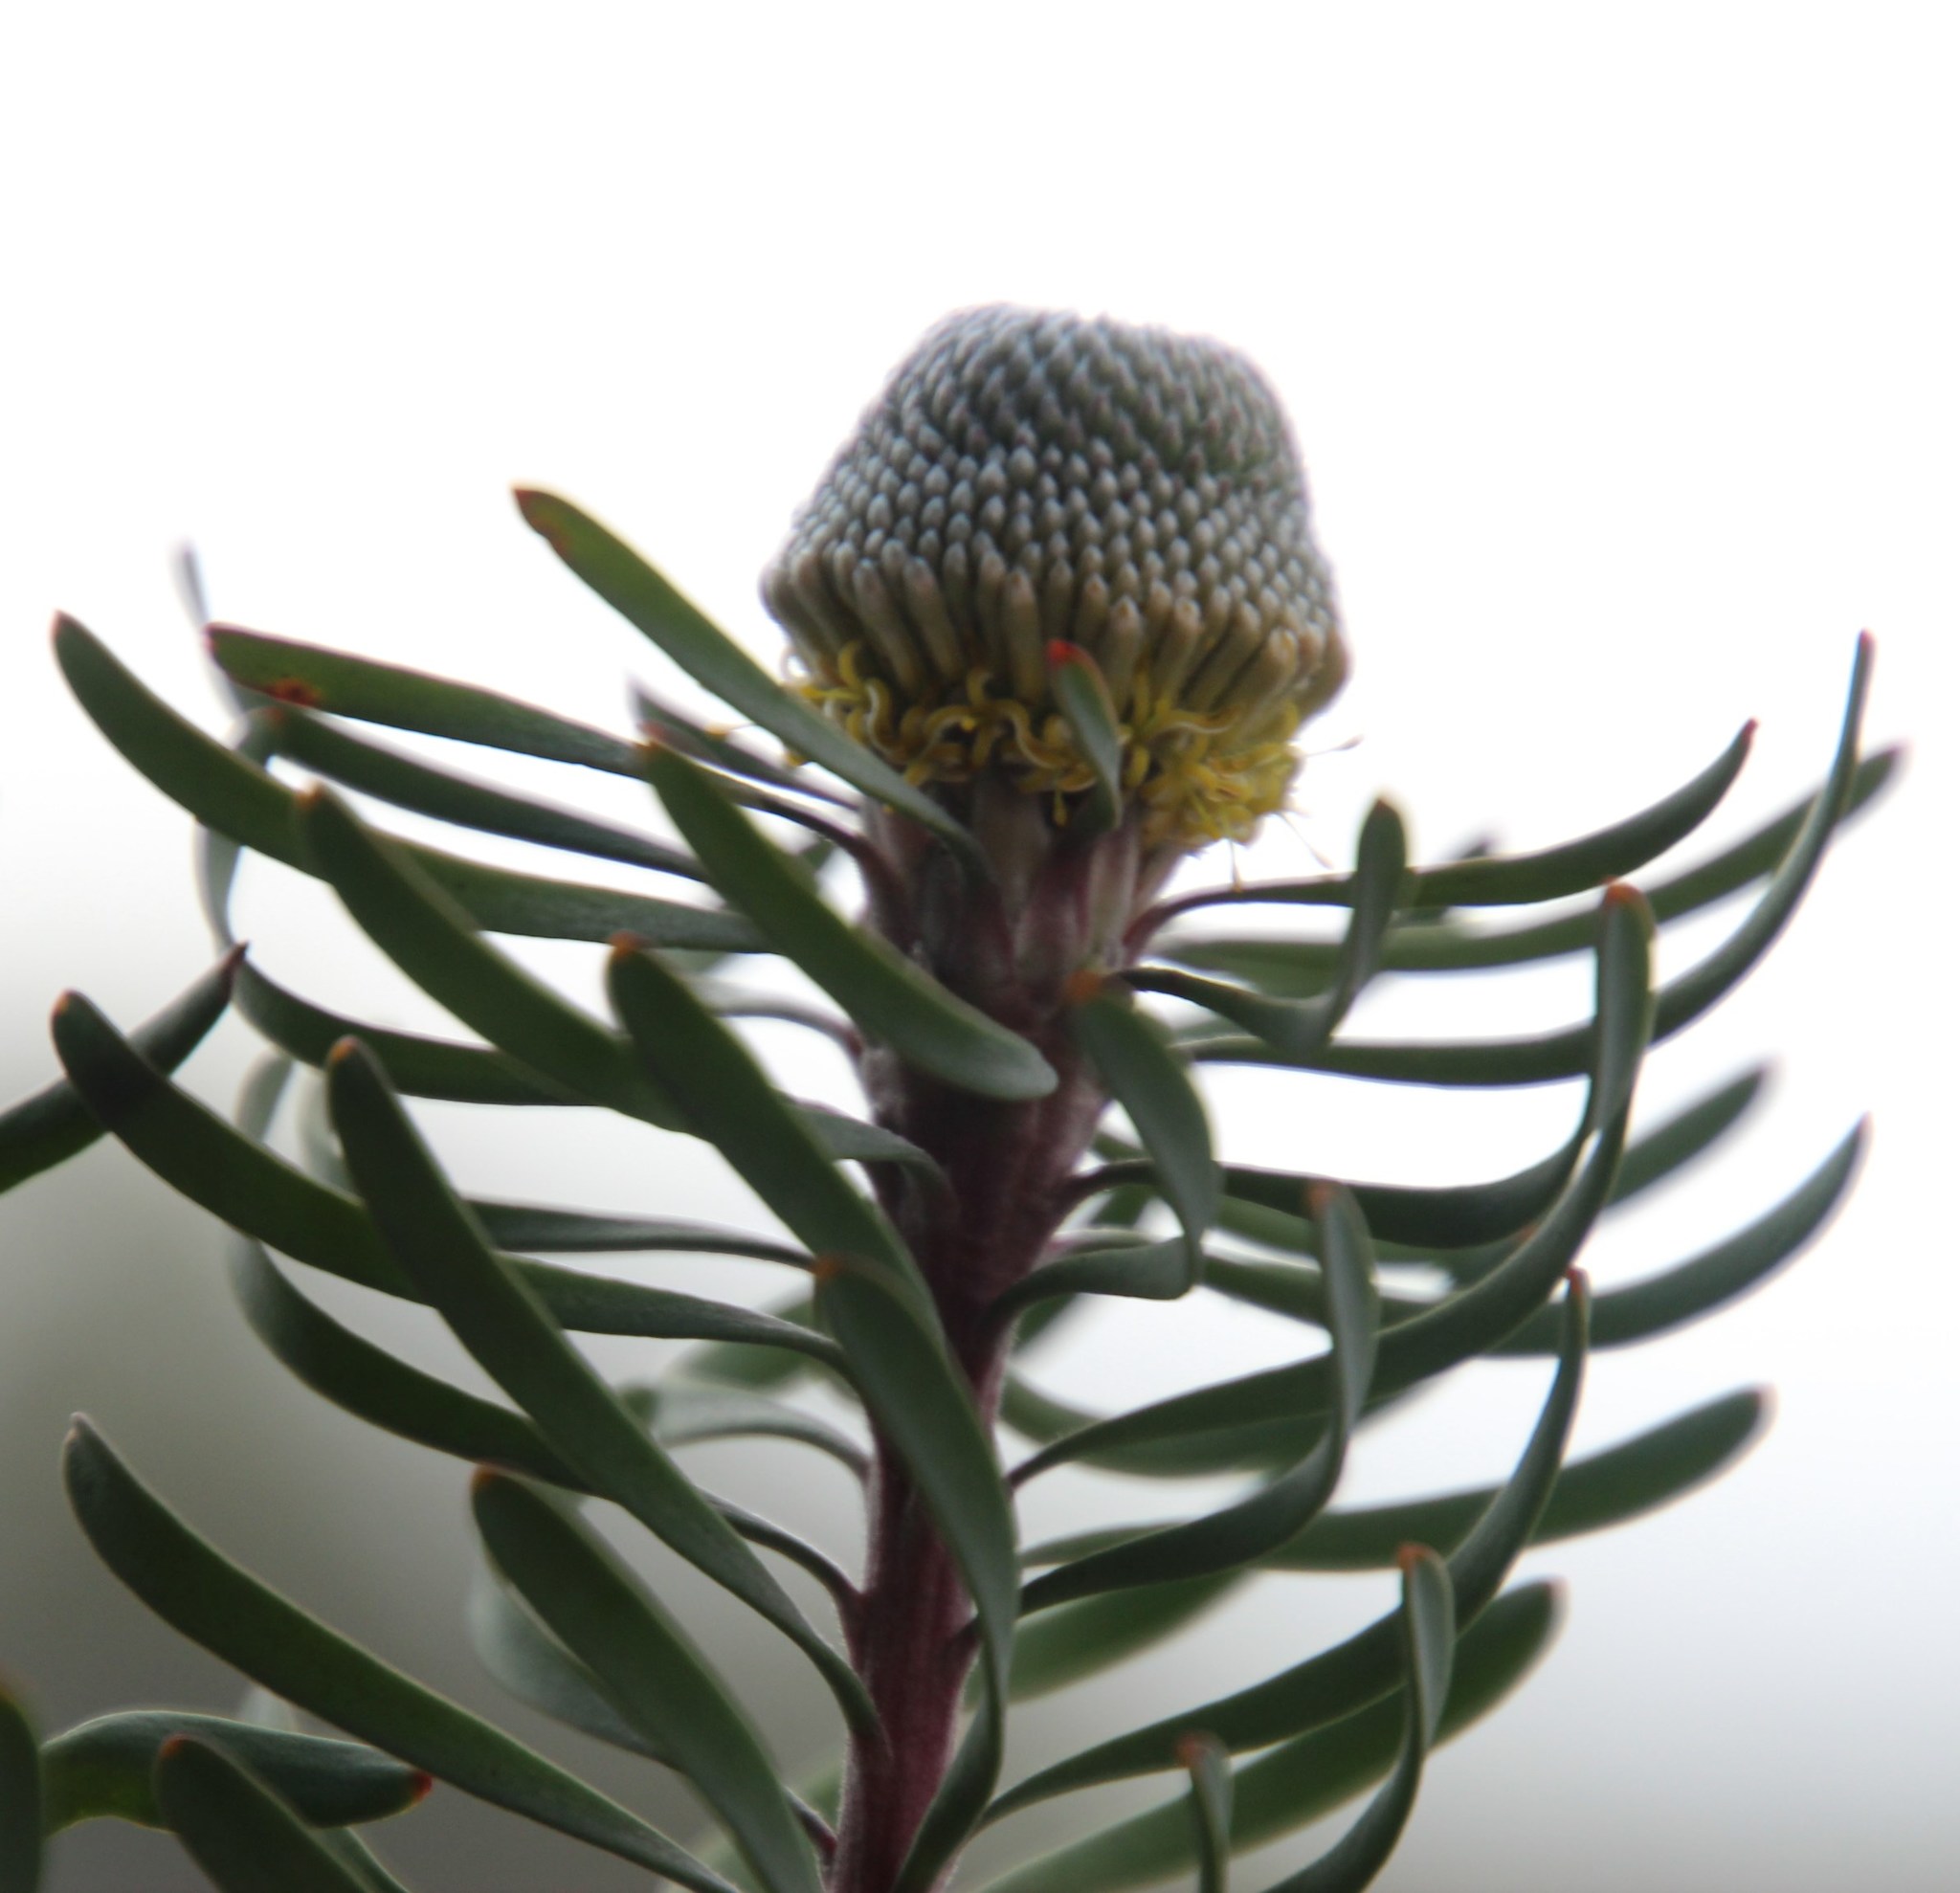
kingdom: Plantae
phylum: Tracheophyta
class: Magnoliopsida
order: Proteales
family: Proteaceae
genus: Leucadendron
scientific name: Leucadendron galpinii
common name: Hairless conebush
